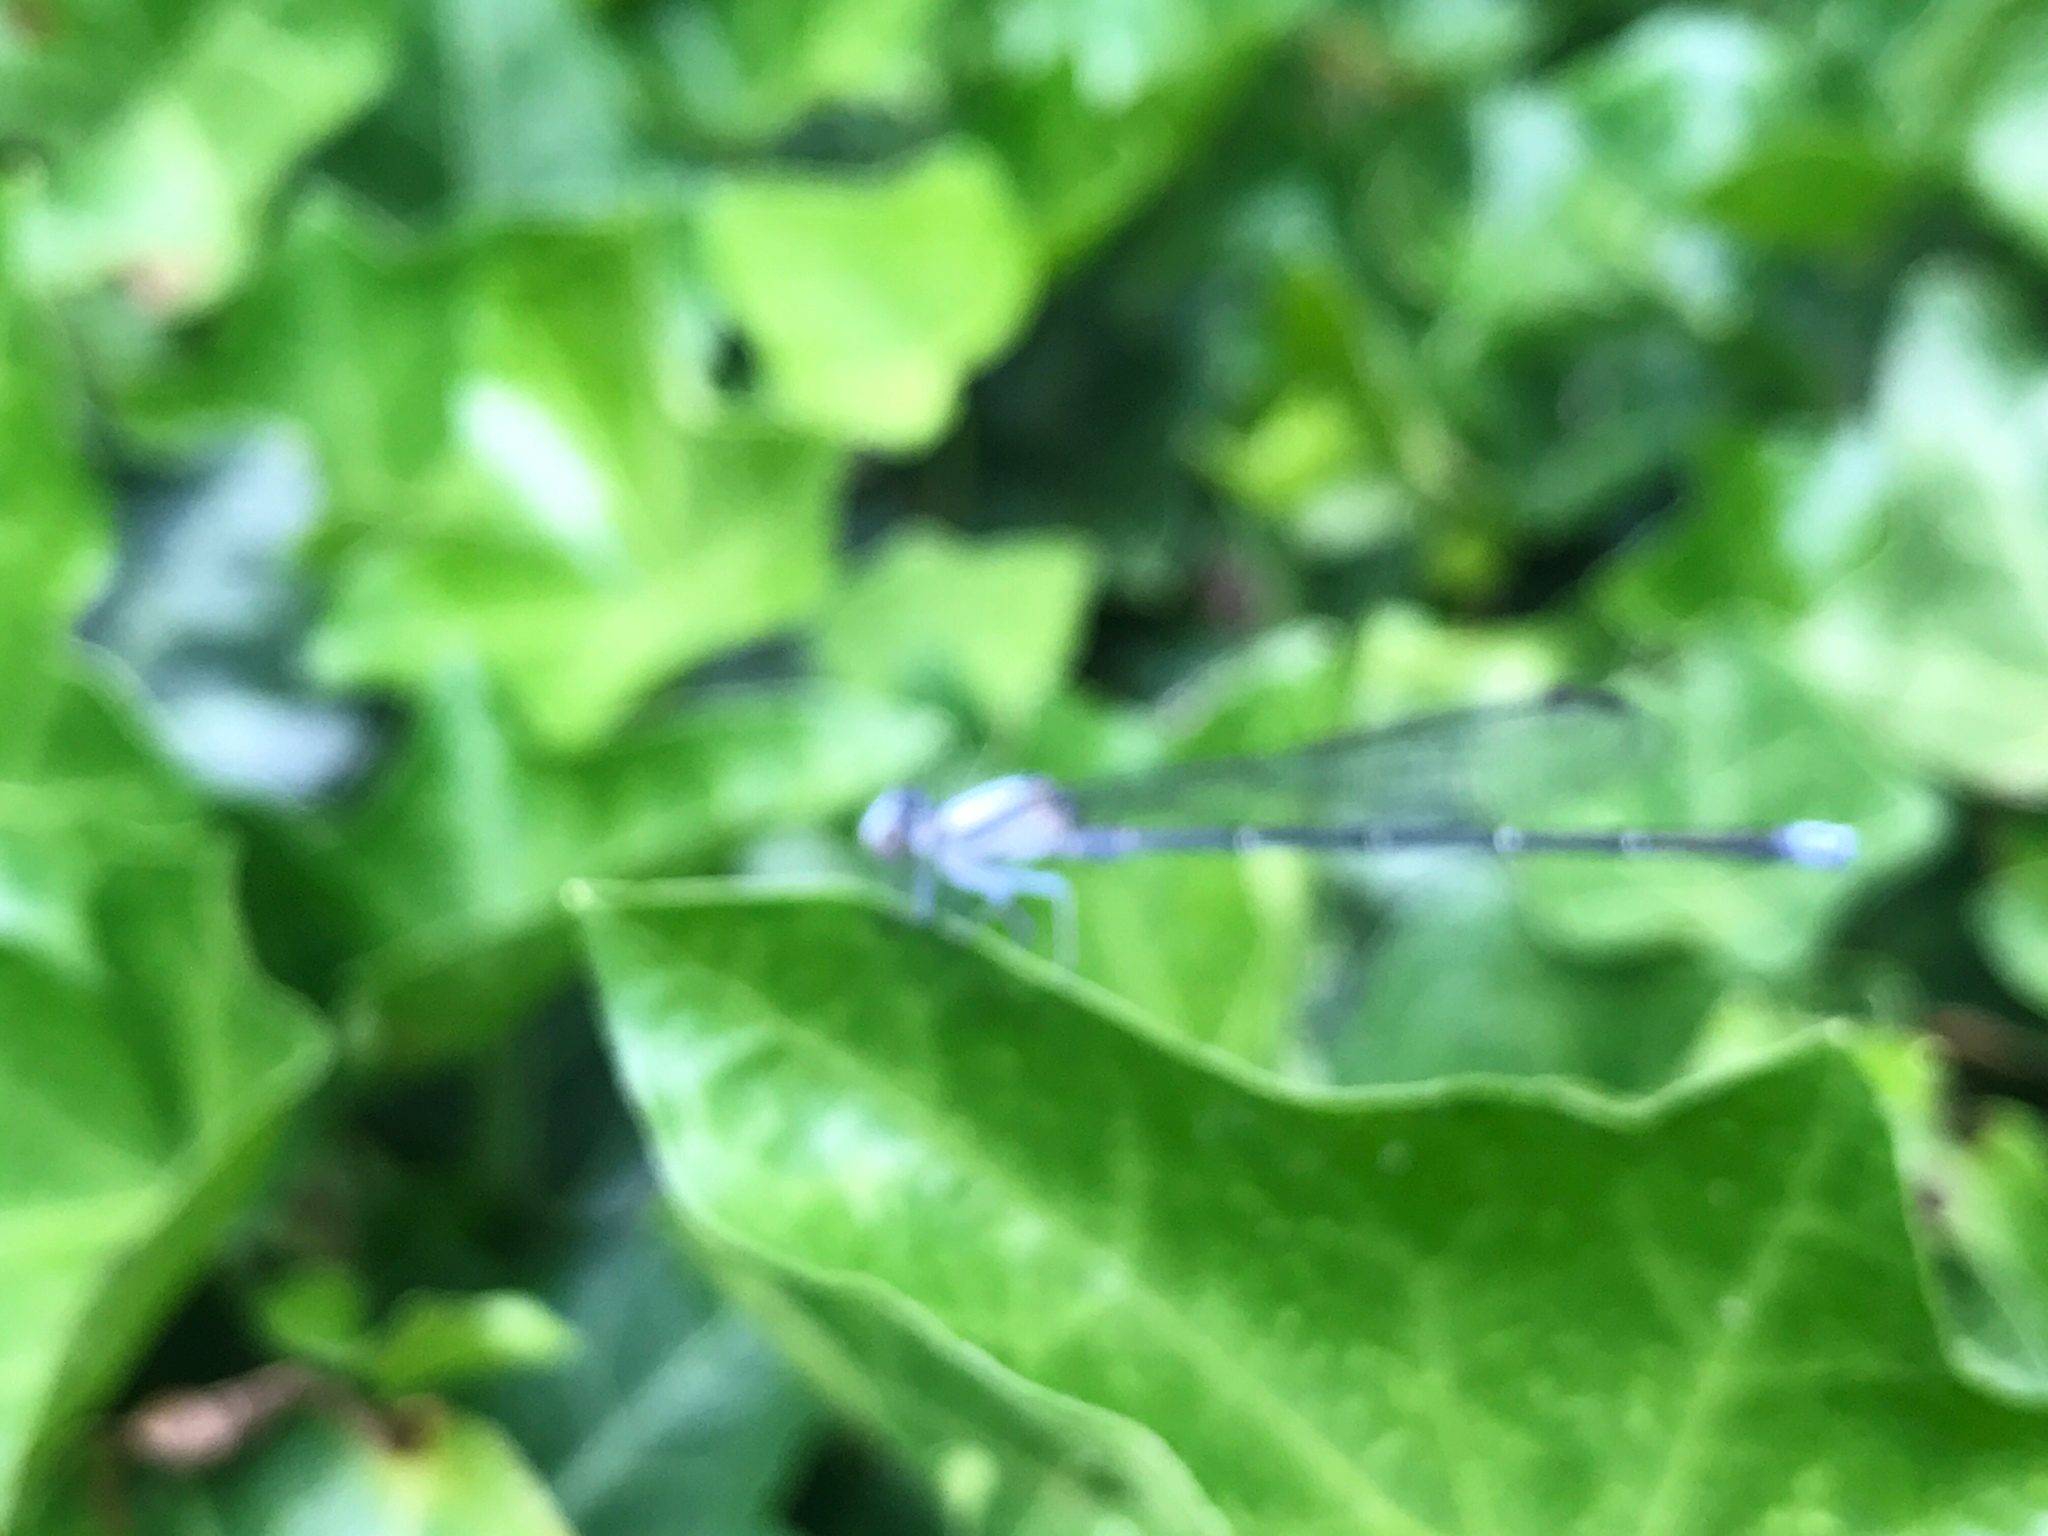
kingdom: Animalia
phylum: Arthropoda
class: Insecta
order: Odonata
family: Coenagrionidae
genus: Argia
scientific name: Argia moesta
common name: Powdered dancer
